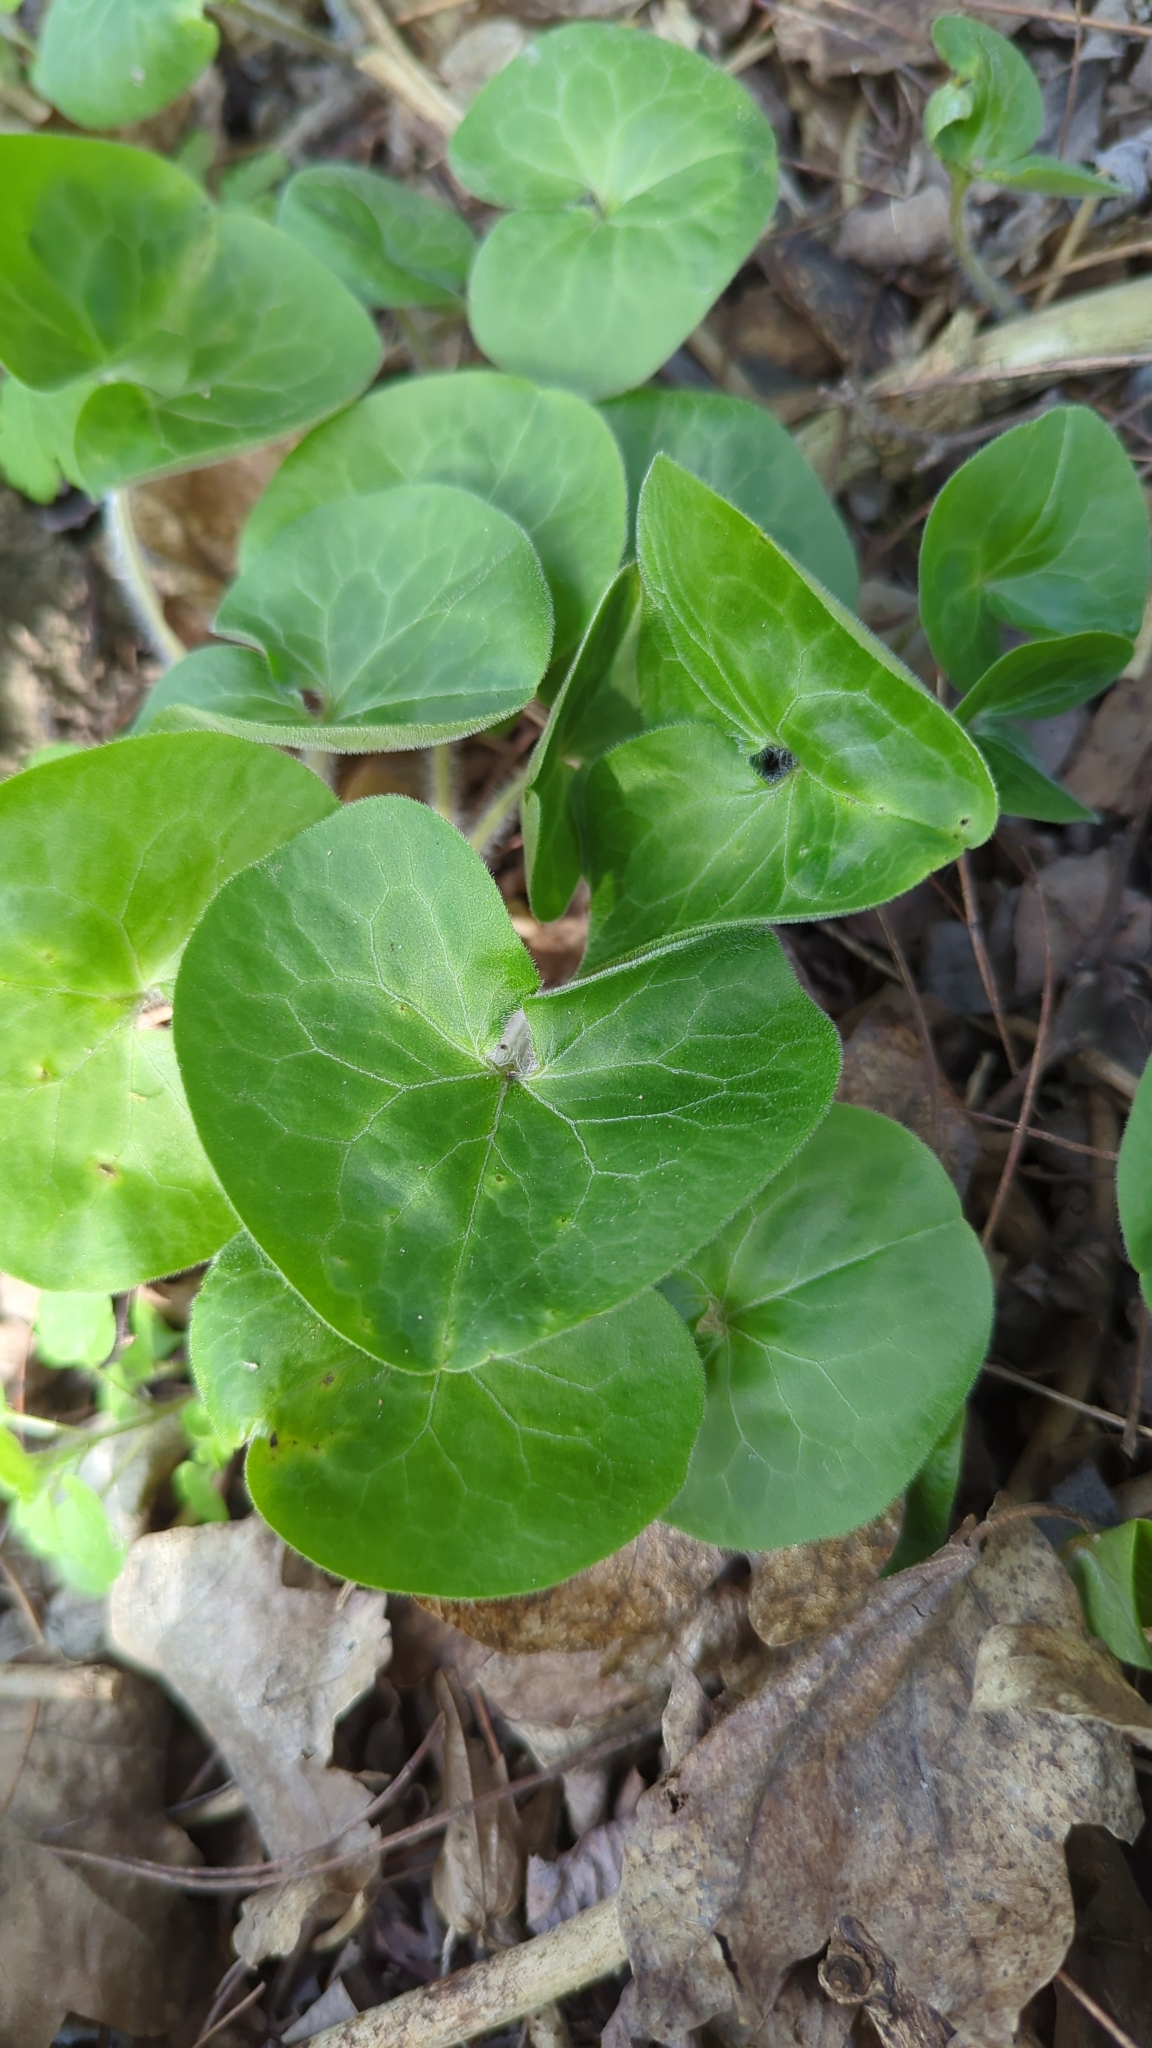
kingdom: Plantae
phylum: Tracheophyta
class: Magnoliopsida
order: Piperales
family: Aristolochiaceae
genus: Asarum
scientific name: Asarum europaeum
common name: Asarabacca
